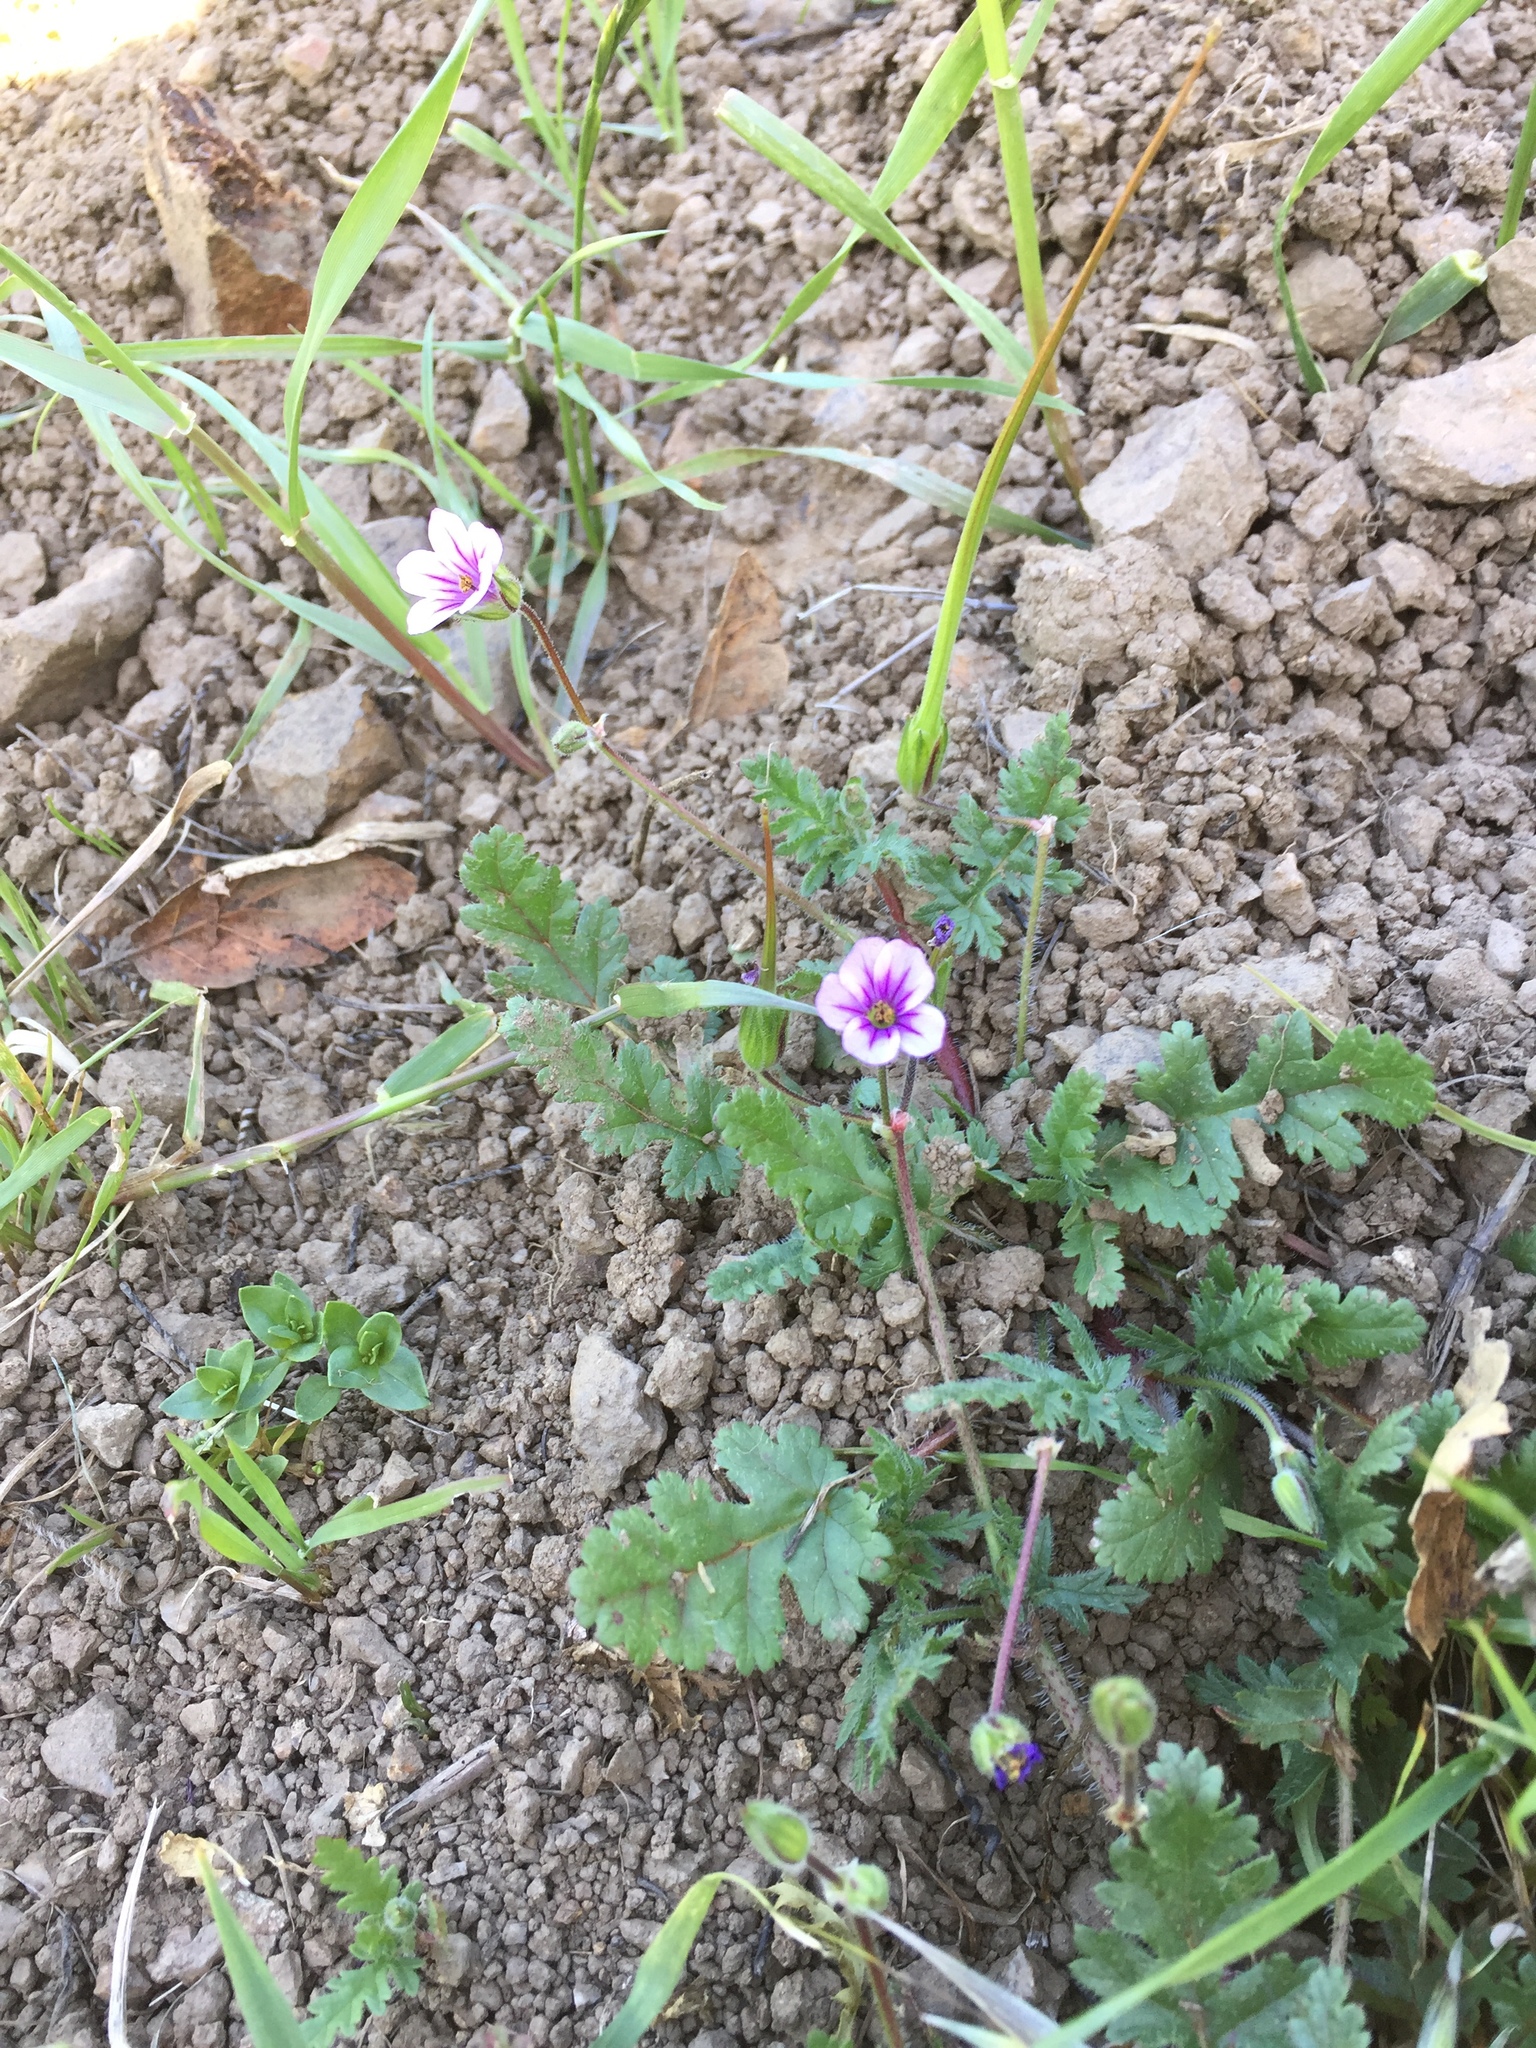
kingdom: Plantae
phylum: Tracheophyta
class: Magnoliopsida
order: Geraniales
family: Geraniaceae
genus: Erodium
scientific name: Erodium botrys
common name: Mediterranean stork's-bill
